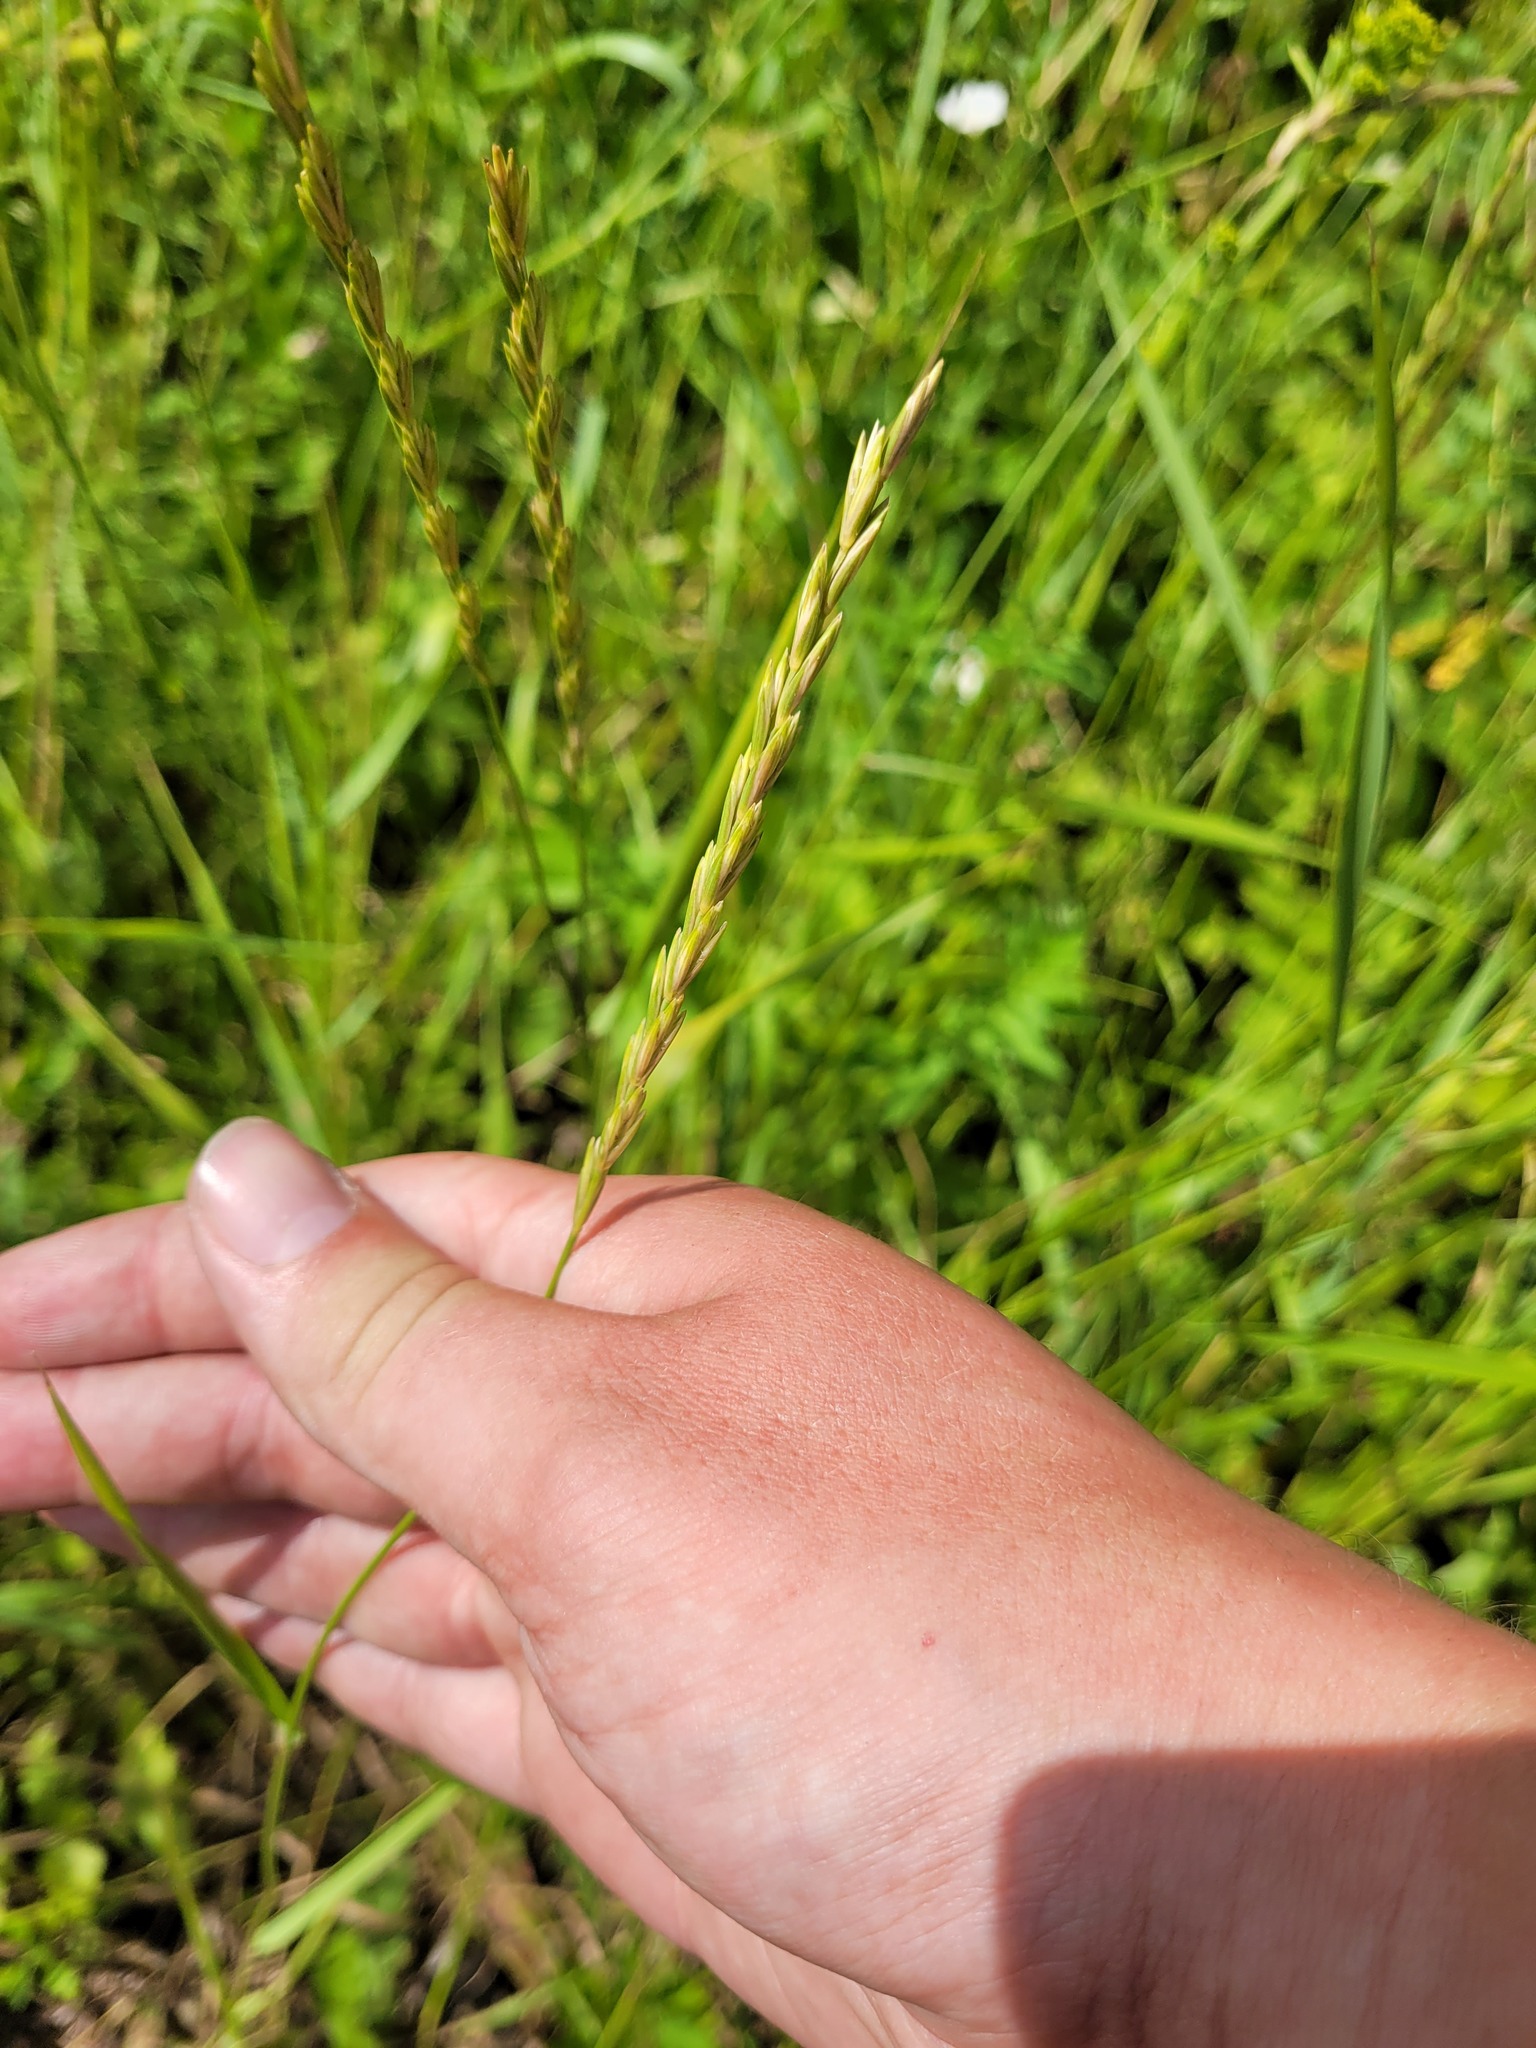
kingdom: Plantae
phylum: Tracheophyta
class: Liliopsida
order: Poales
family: Poaceae
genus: Elymus
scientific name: Elymus repens
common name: Quackgrass
